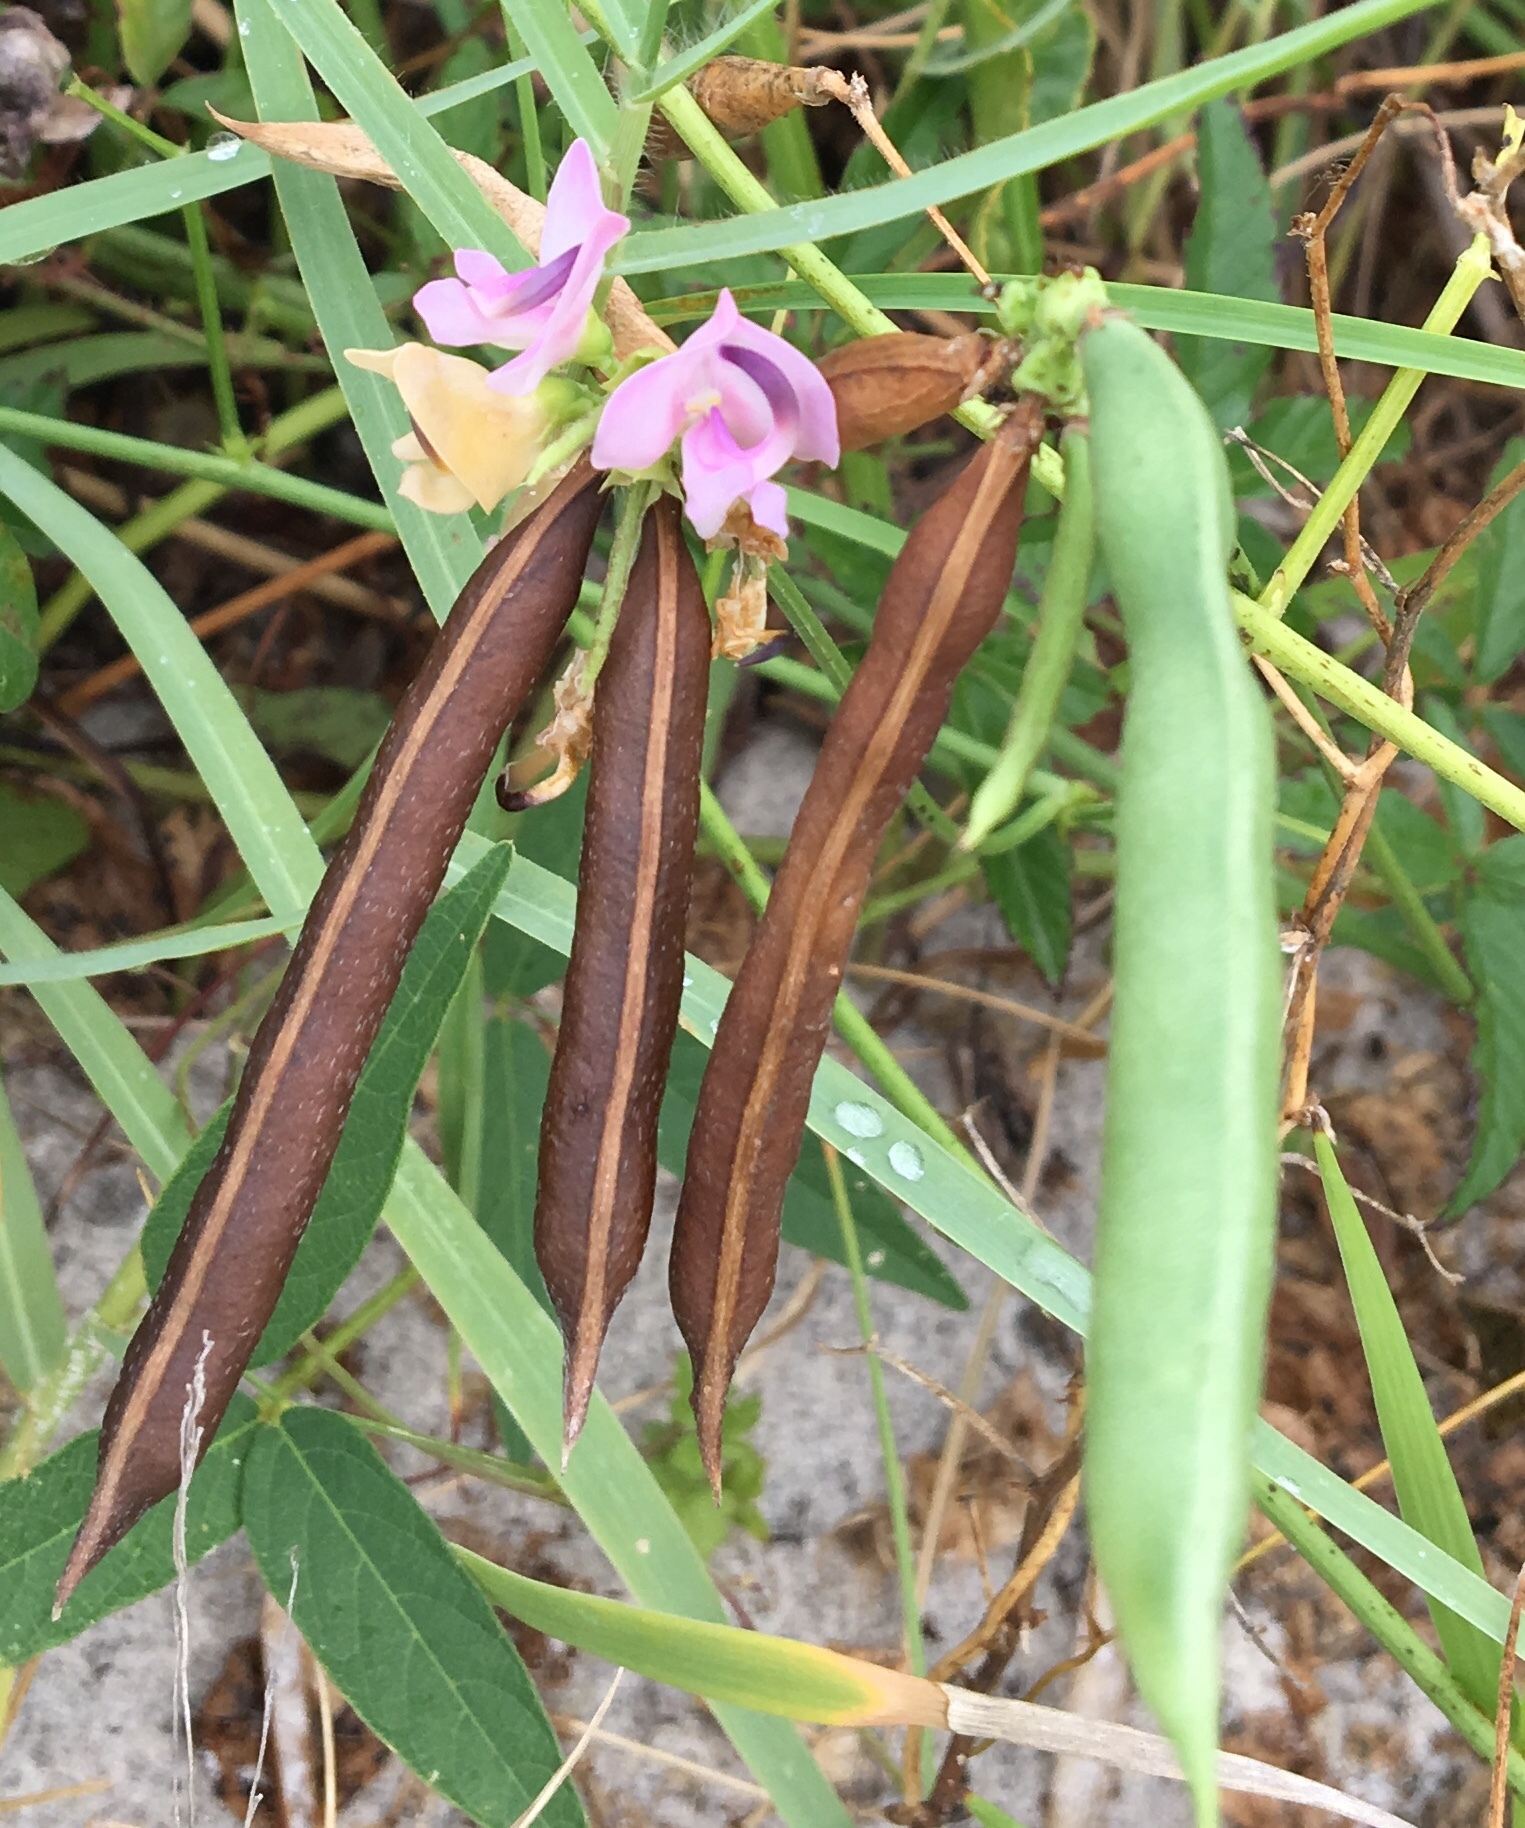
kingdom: Plantae
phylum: Tracheophyta
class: Magnoliopsida
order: Fabales
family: Fabaceae
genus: Strophostyles
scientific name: Strophostyles helvola
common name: Trailing wild bean
